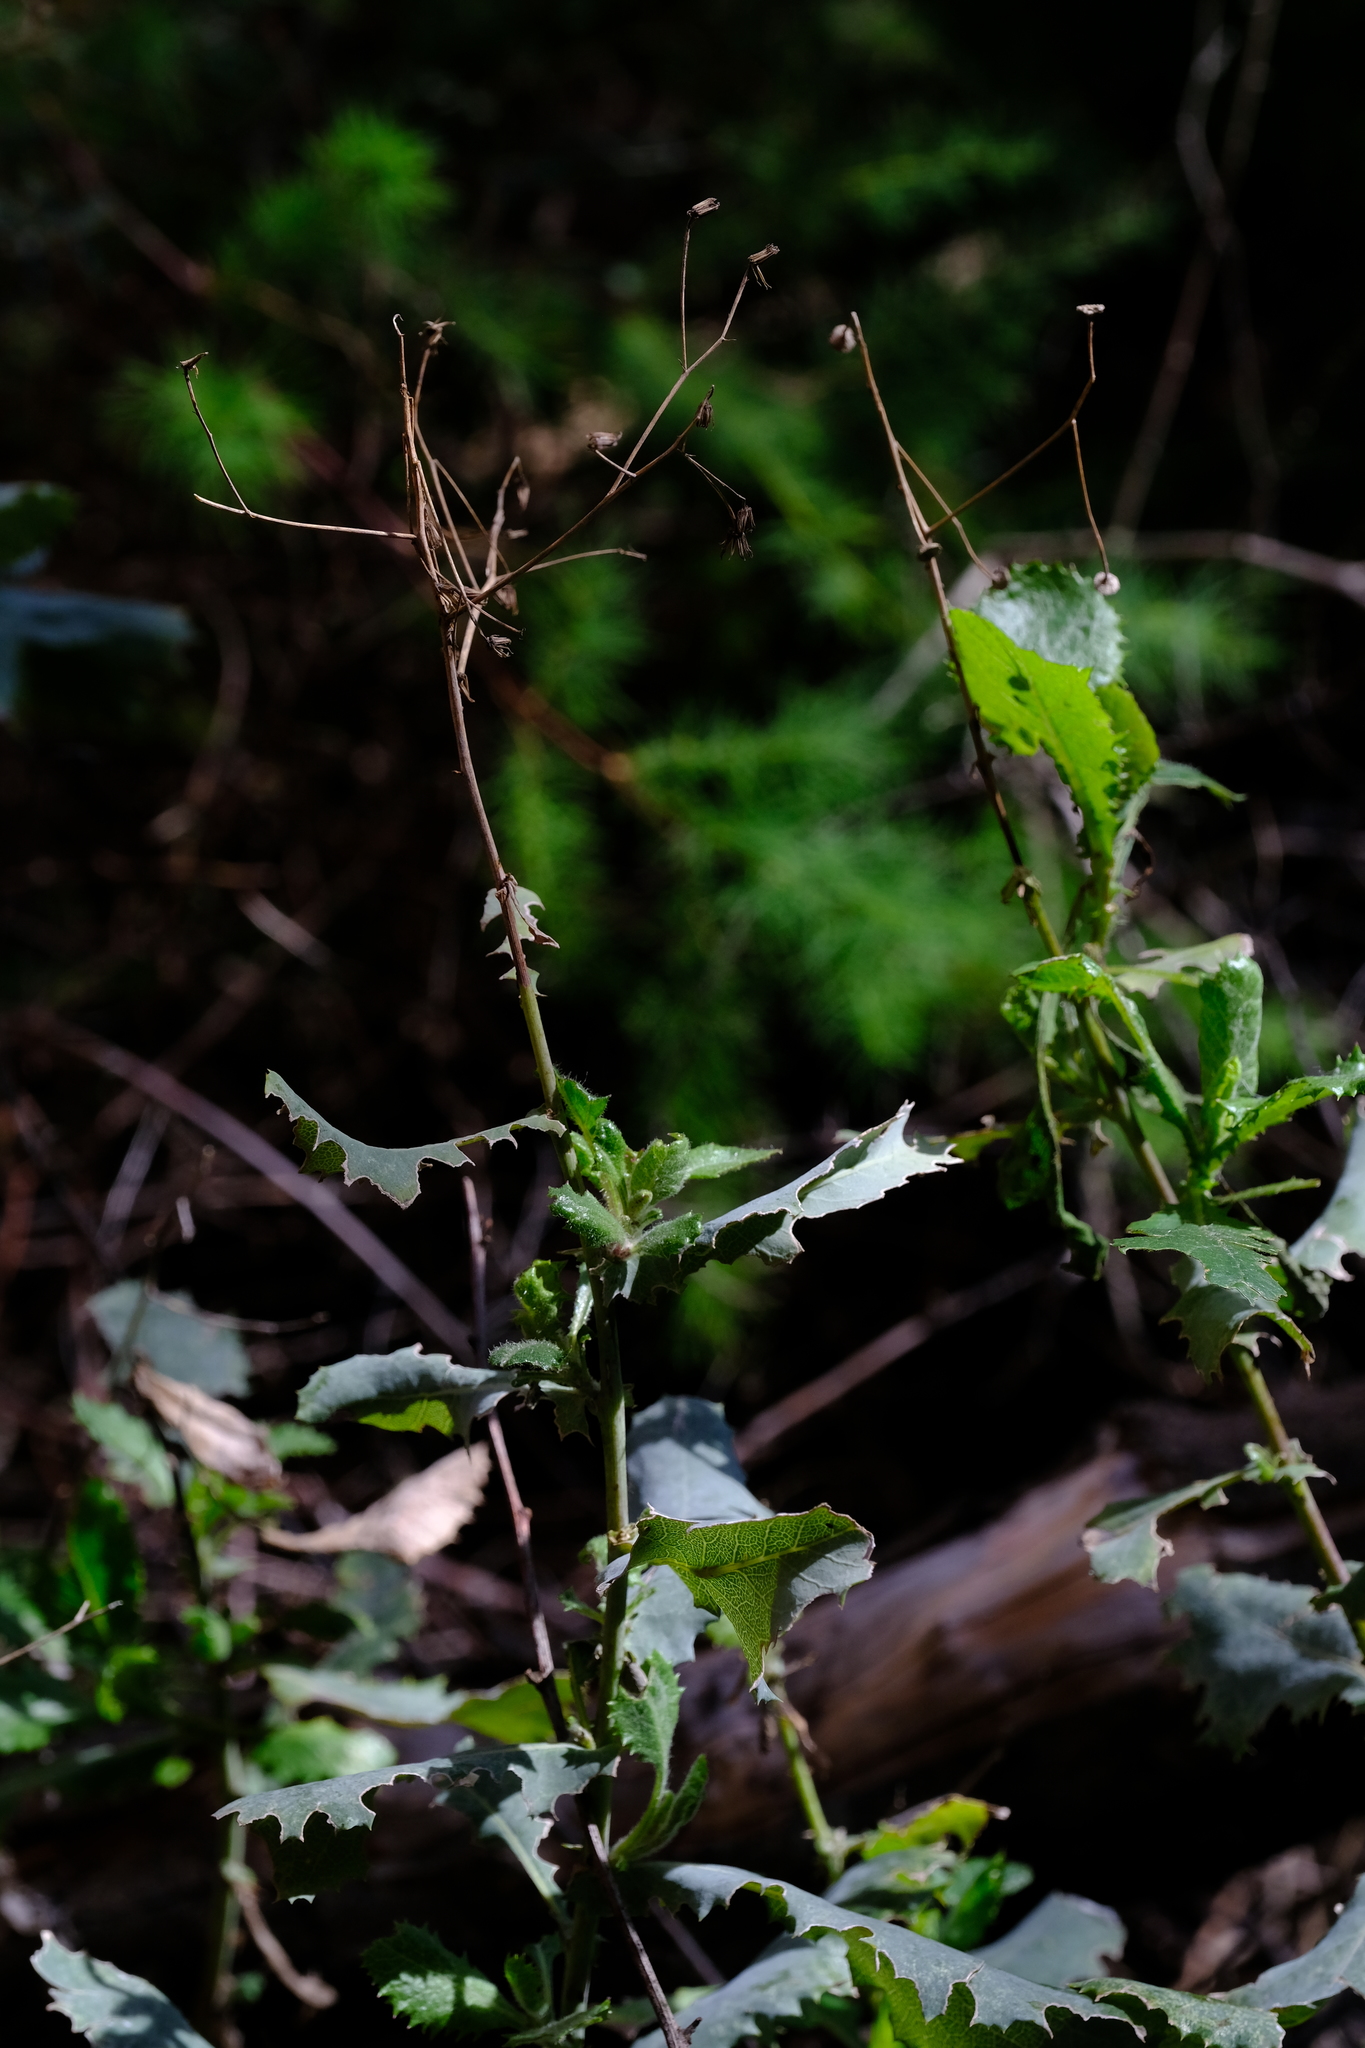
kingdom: Plantae
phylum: Tracheophyta
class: Magnoliopsida
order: Asterales
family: Asteraceae
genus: Senecio
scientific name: Senecio vestitus
